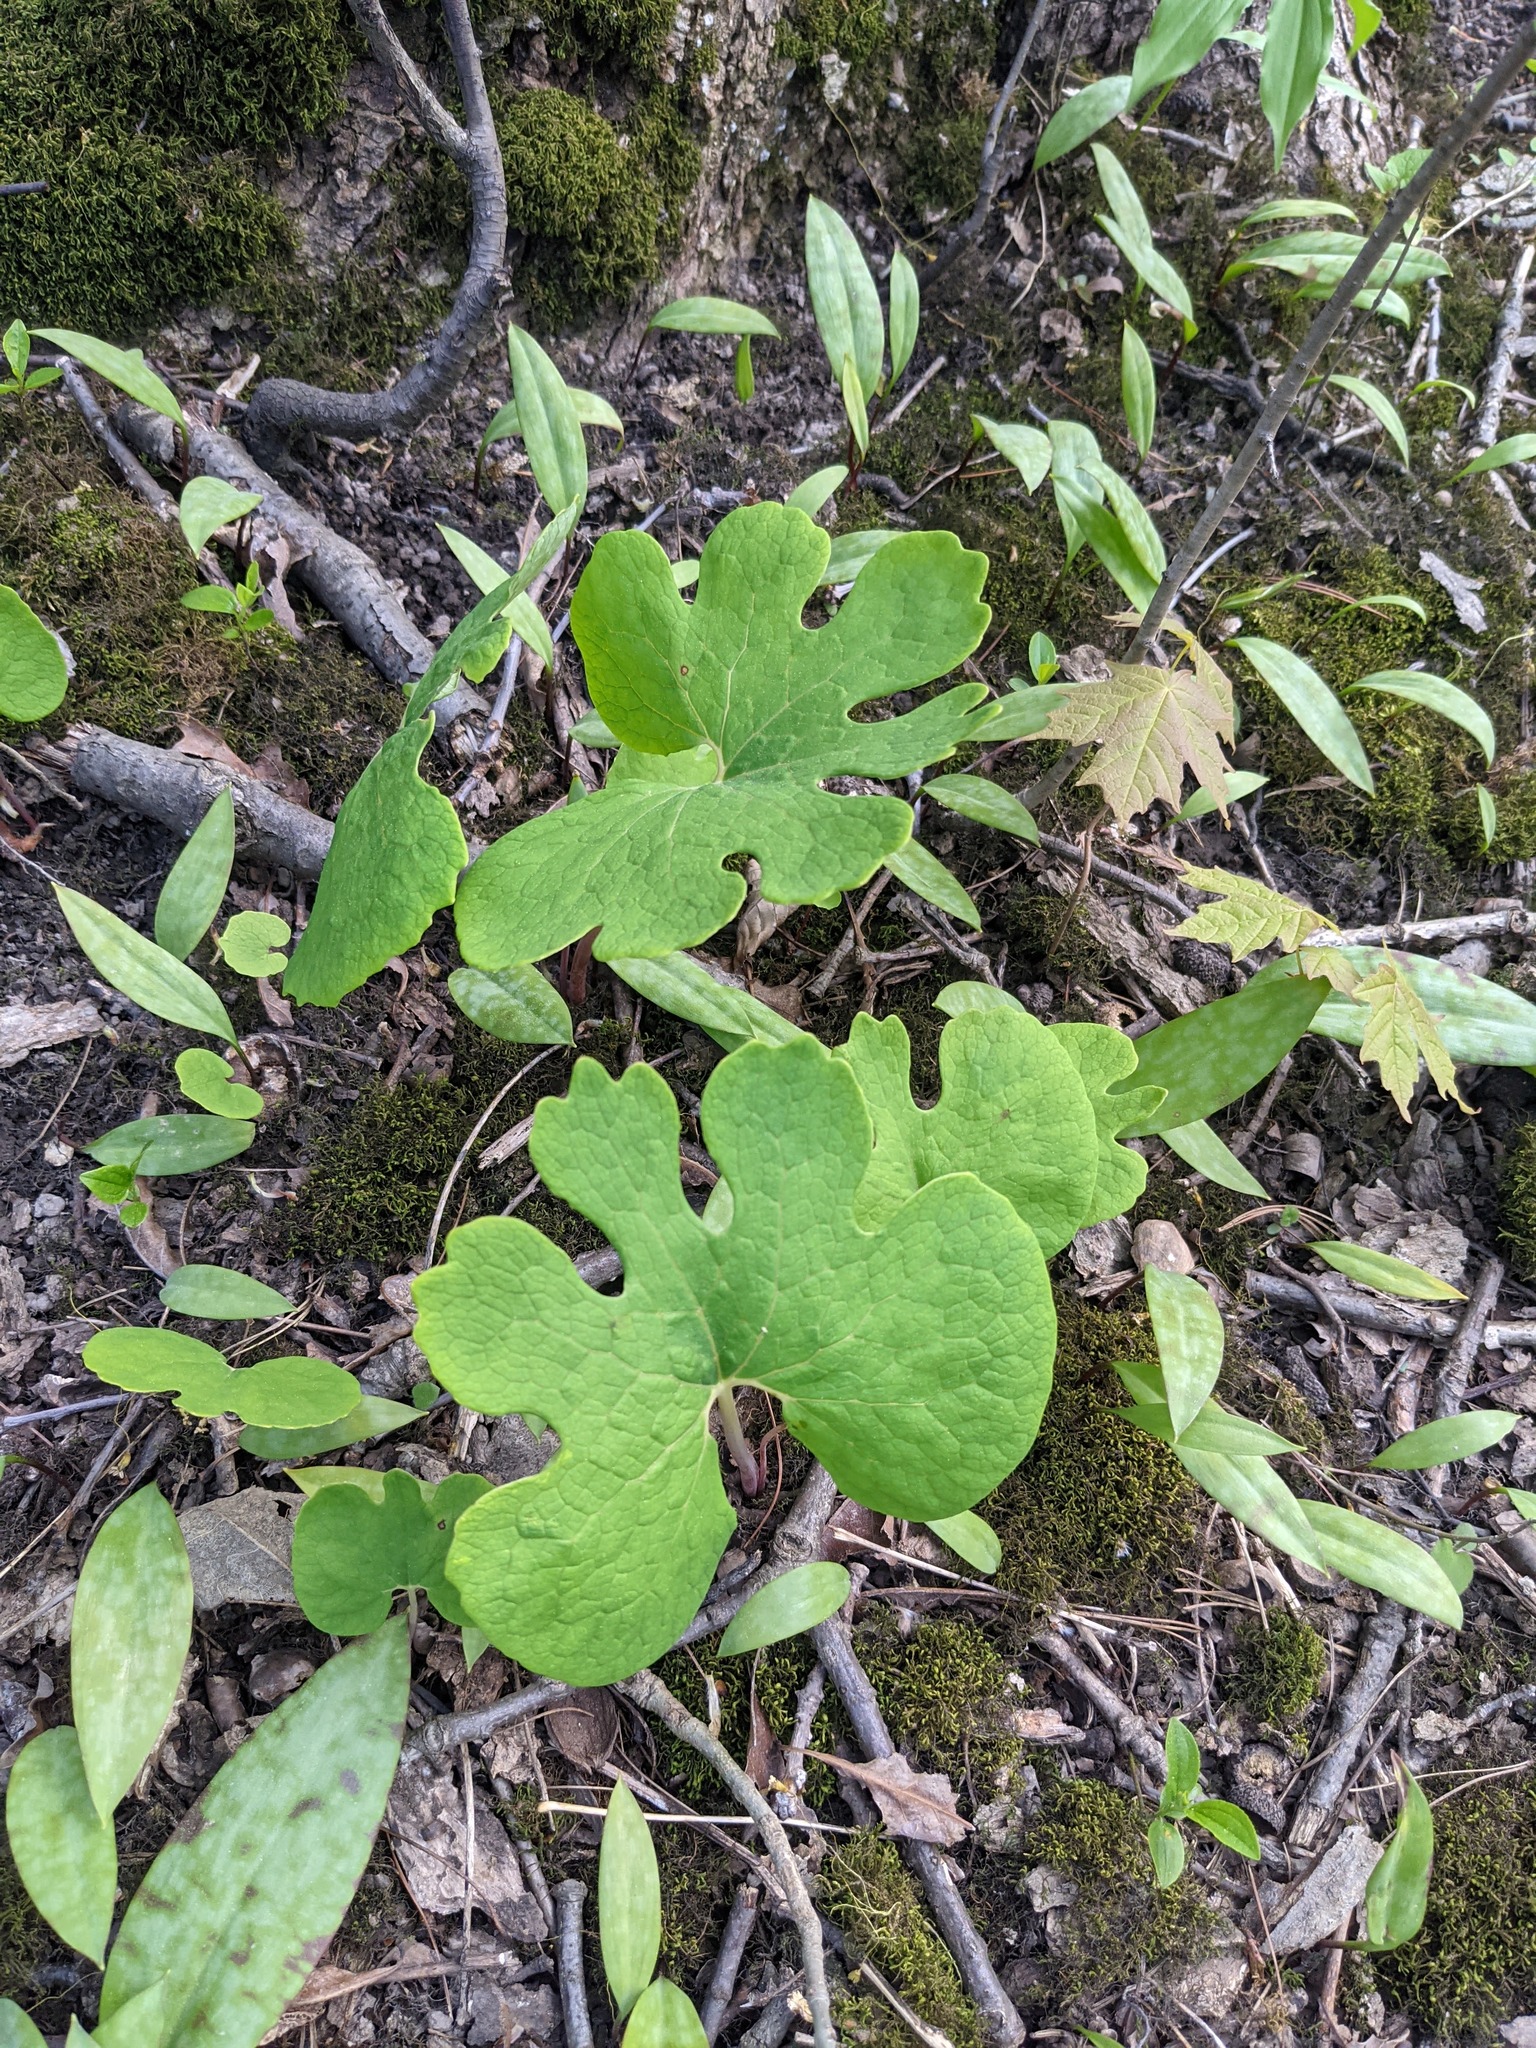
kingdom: Plantae
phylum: Tracheophyta
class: Magnoliopsida
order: Ranunculales
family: Papaveraceae
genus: Sanguinaria
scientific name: Sanguinaria canadensis
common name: Bloodroot
